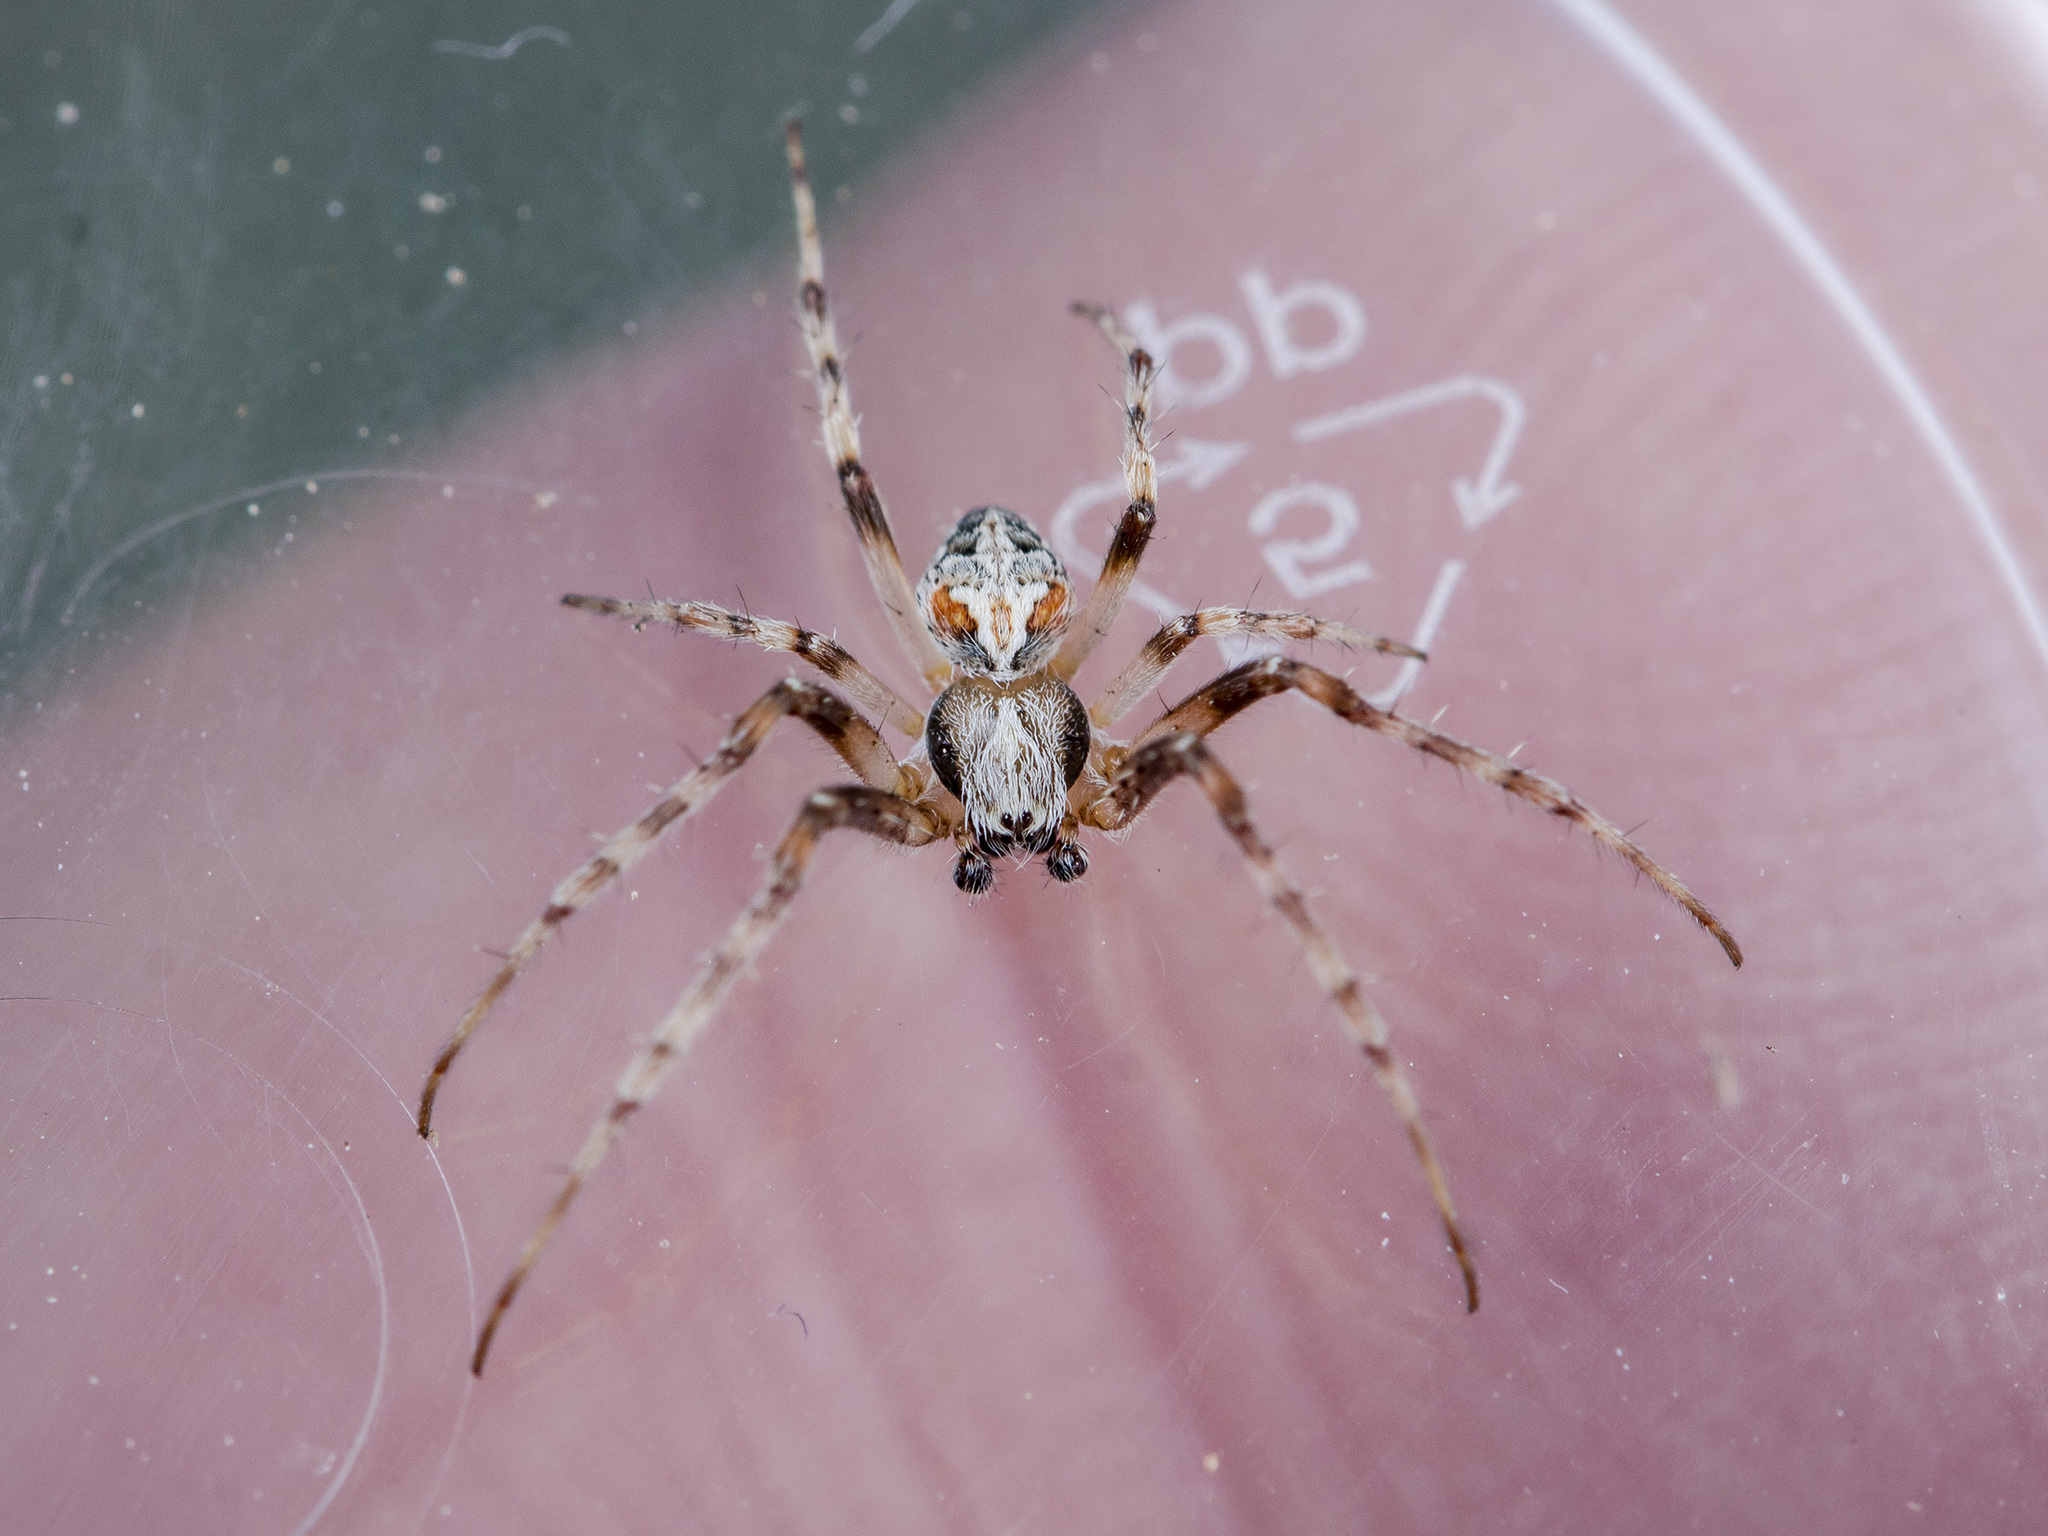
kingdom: Animalia
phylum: Arthropoda
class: Arachnida
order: Araneae
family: Araneidae
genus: Araneus
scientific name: Araneus pallasi
